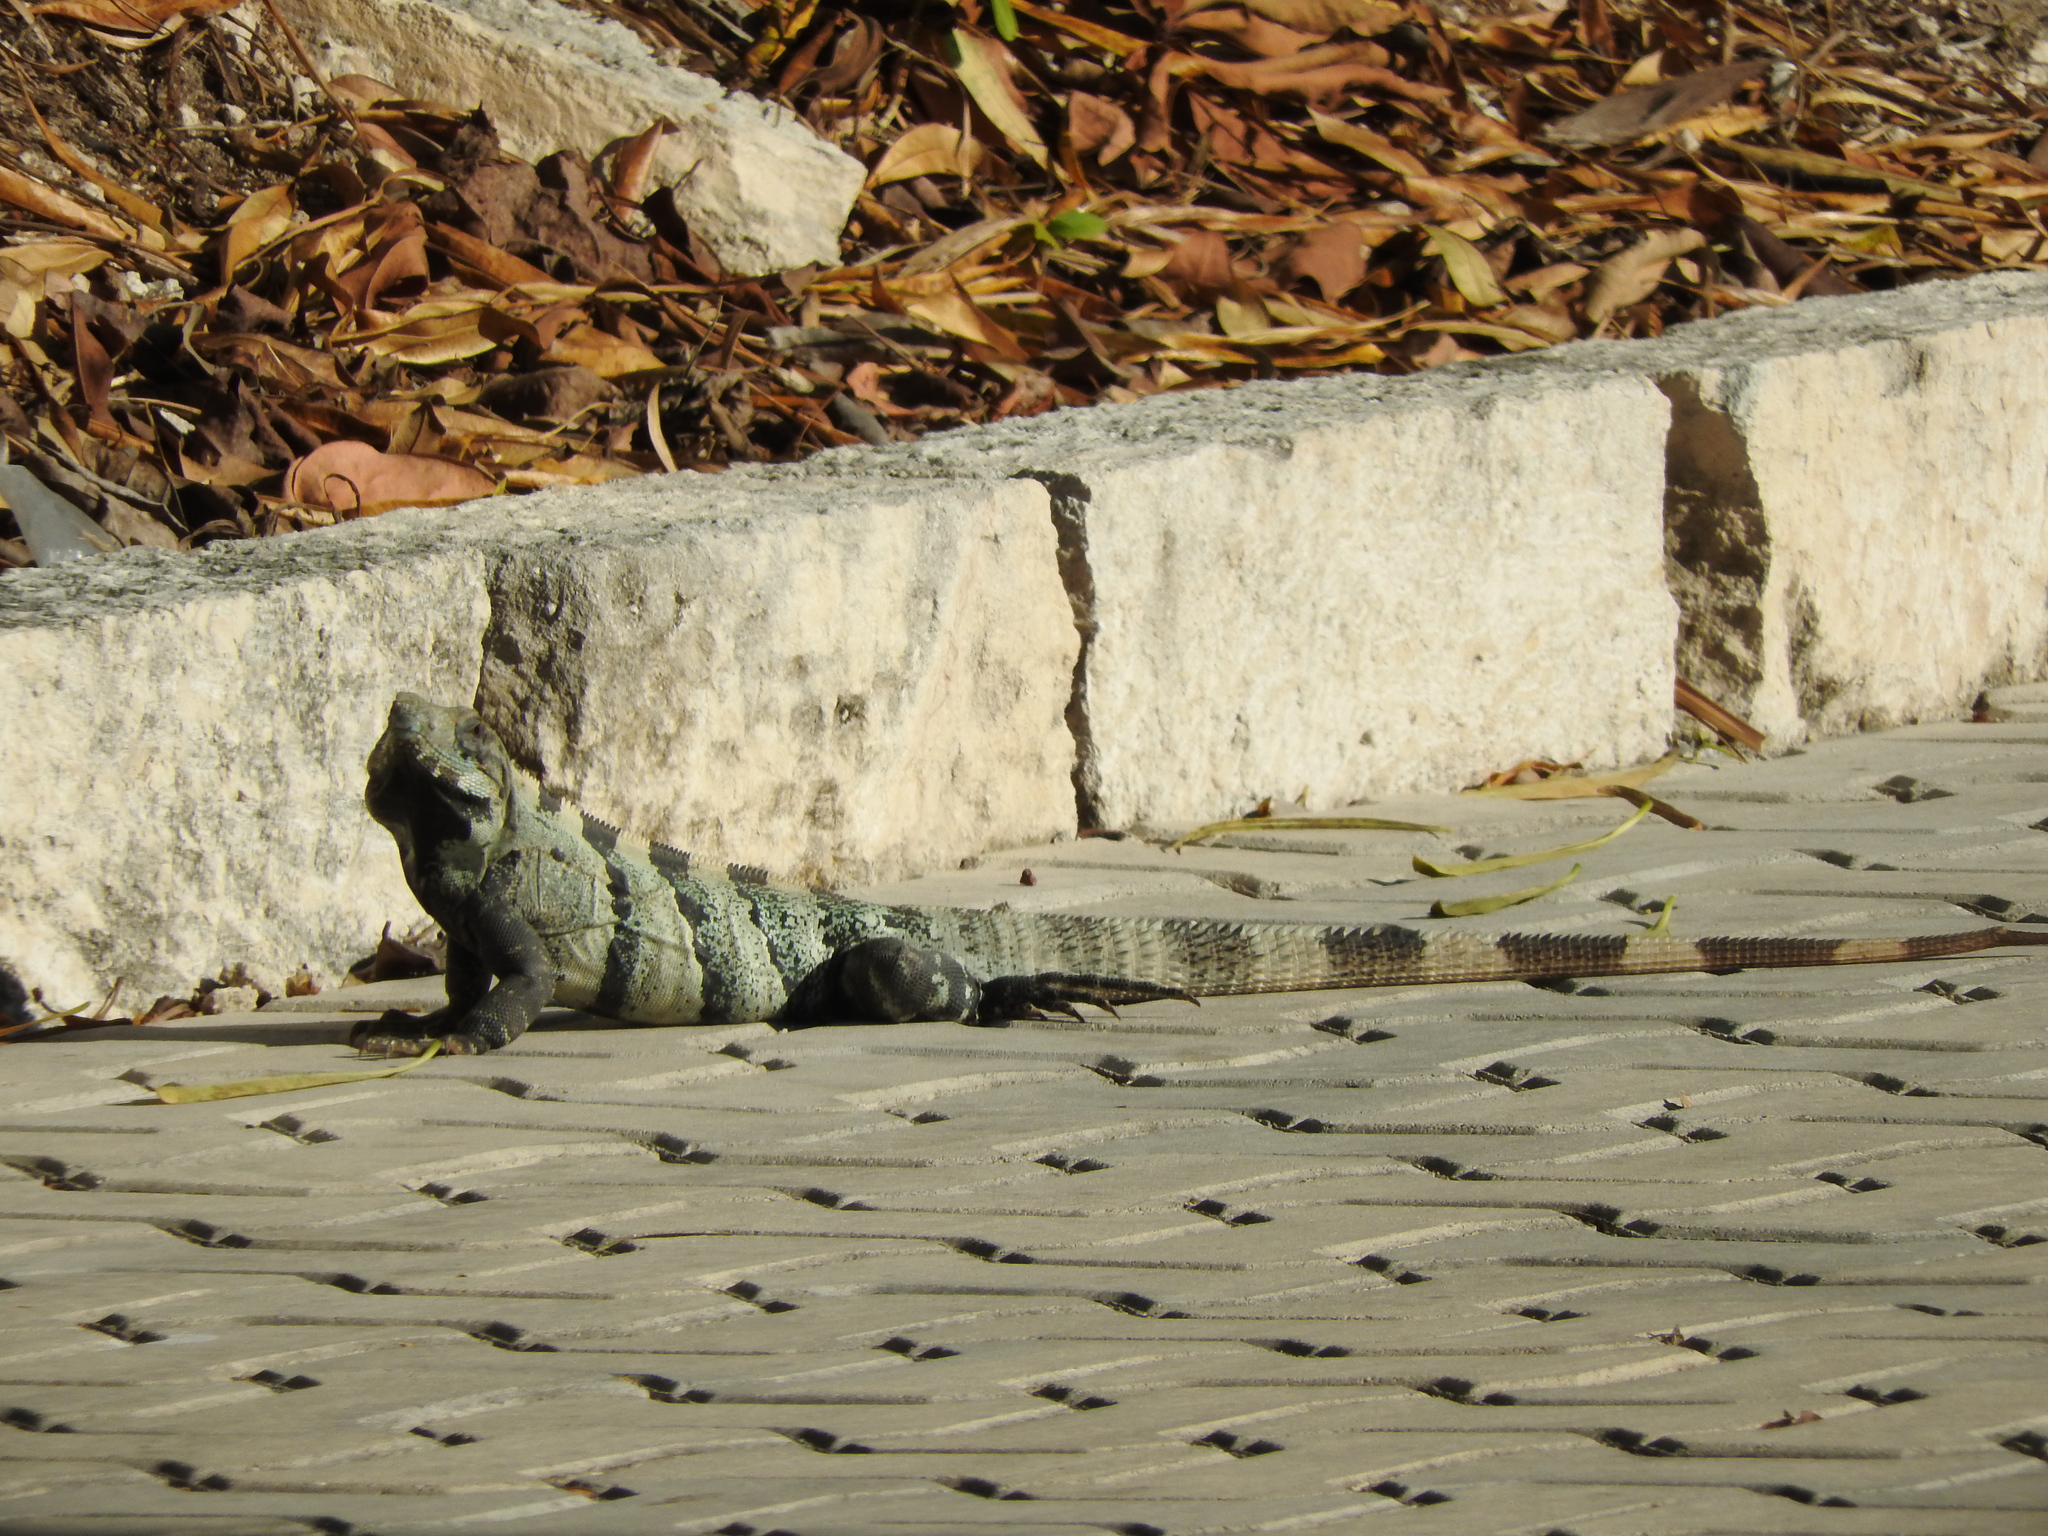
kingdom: Animalia
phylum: Chordata
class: Squamata
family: Iguanidae
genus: Ctenosaura
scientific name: Ctenosaura similis
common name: Black spiny-tailed iguana
